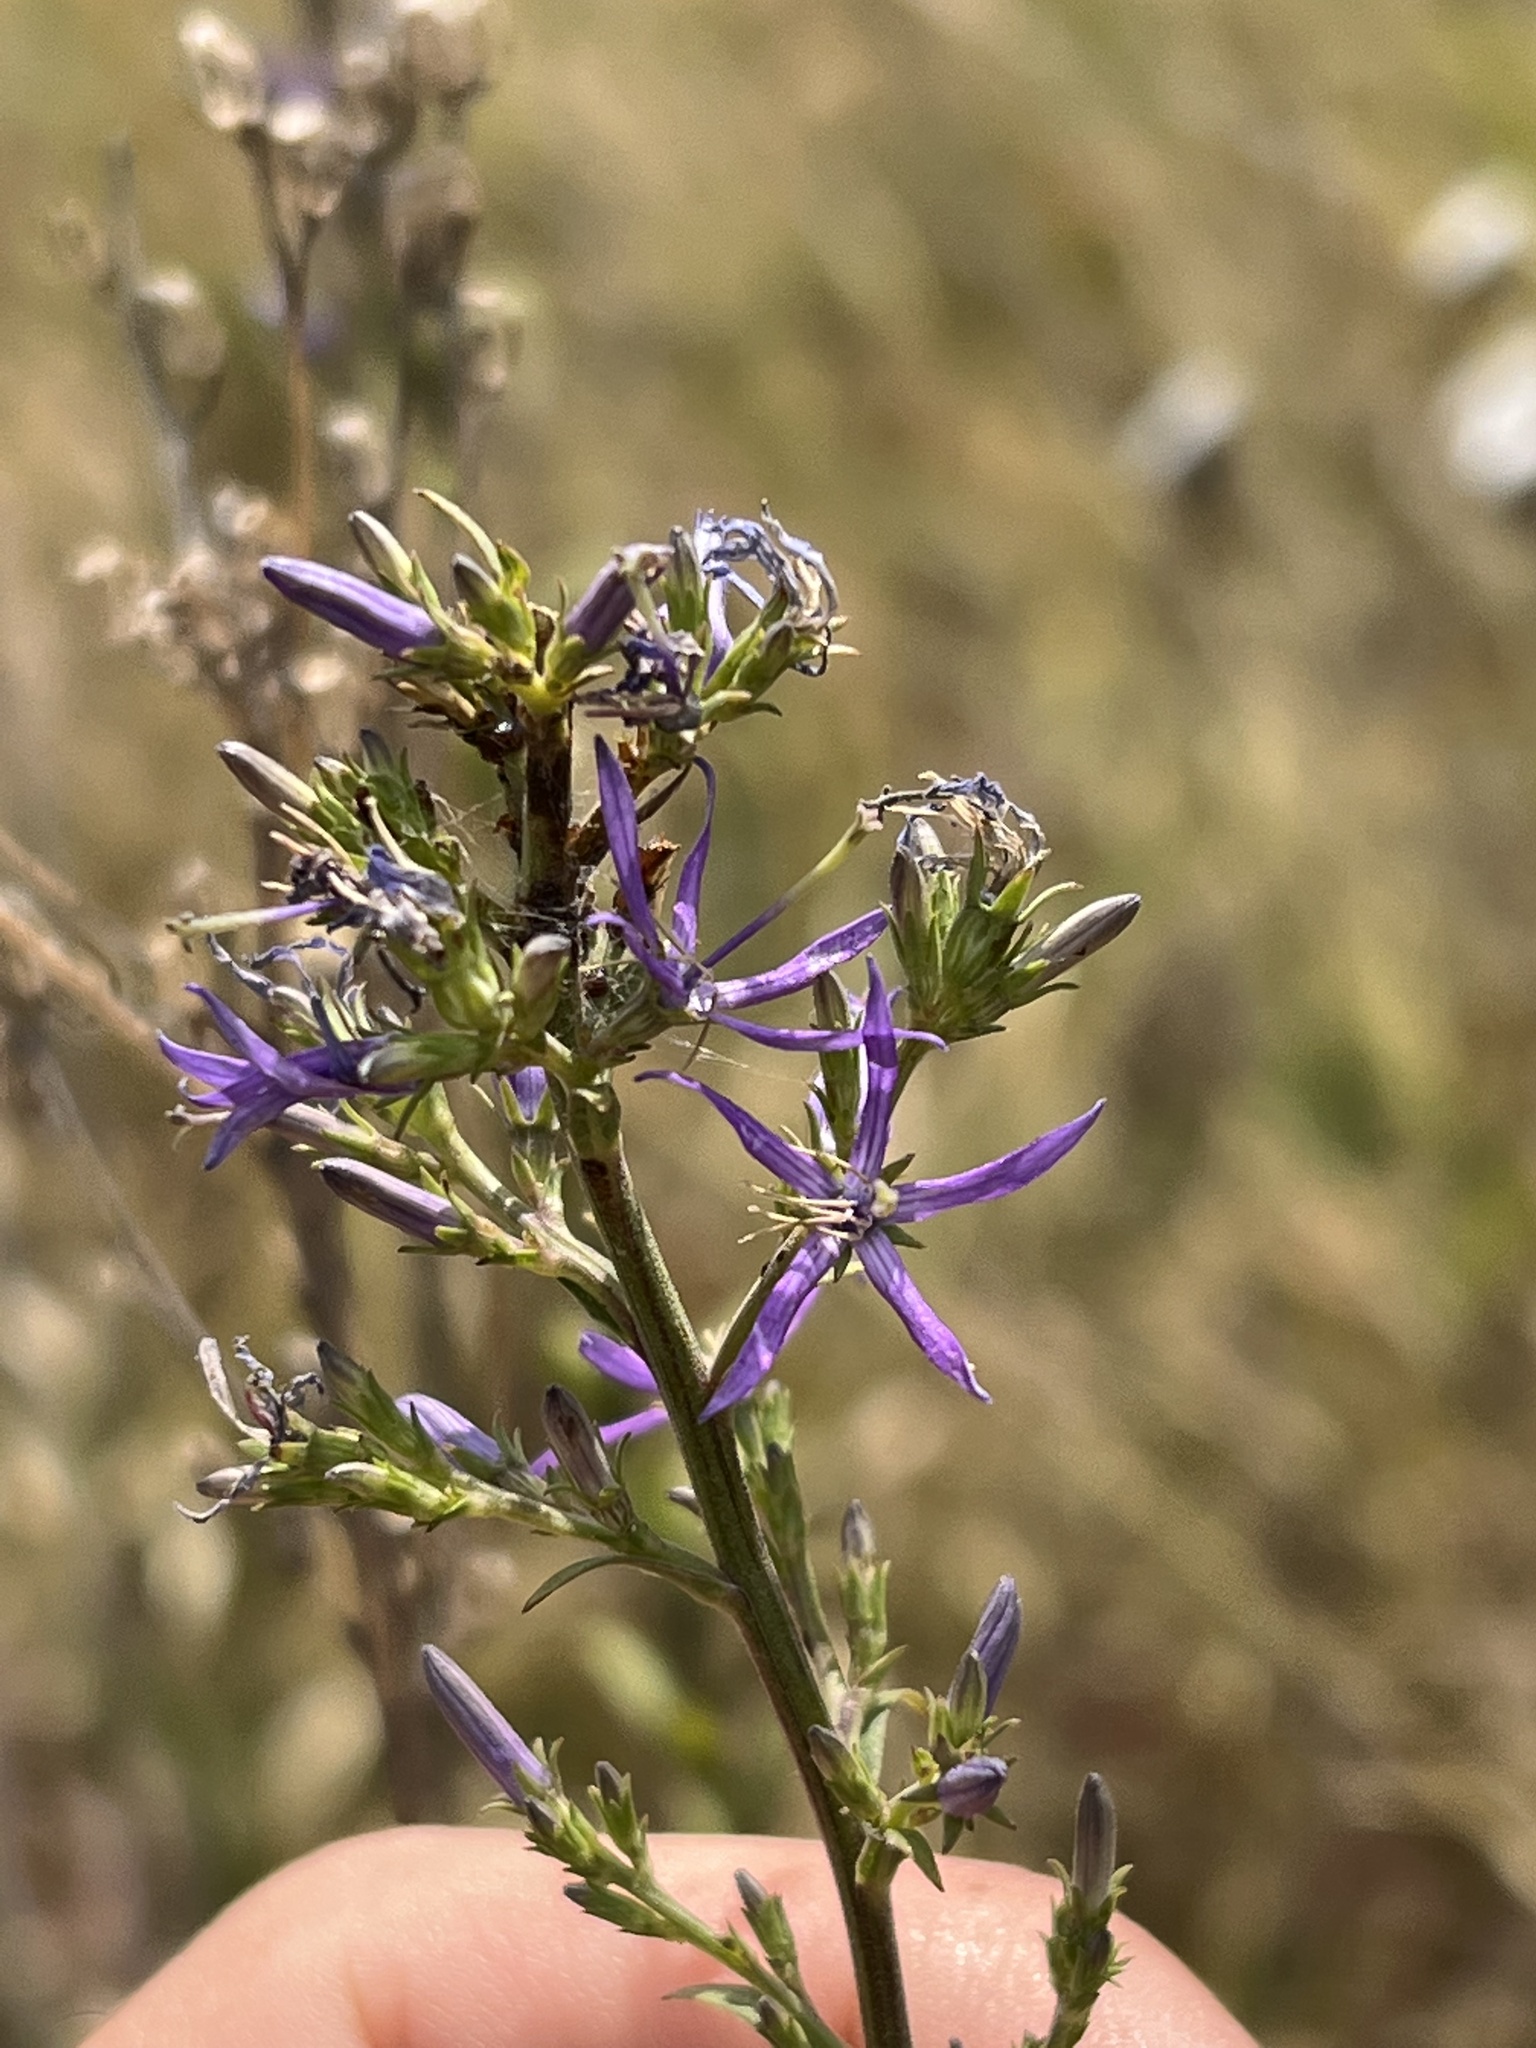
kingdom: Plantae
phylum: Tracheophyta
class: Magnoliopsida
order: Asterales
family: Campanulaceae
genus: Asyneuma
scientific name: Asyneuma canescens
